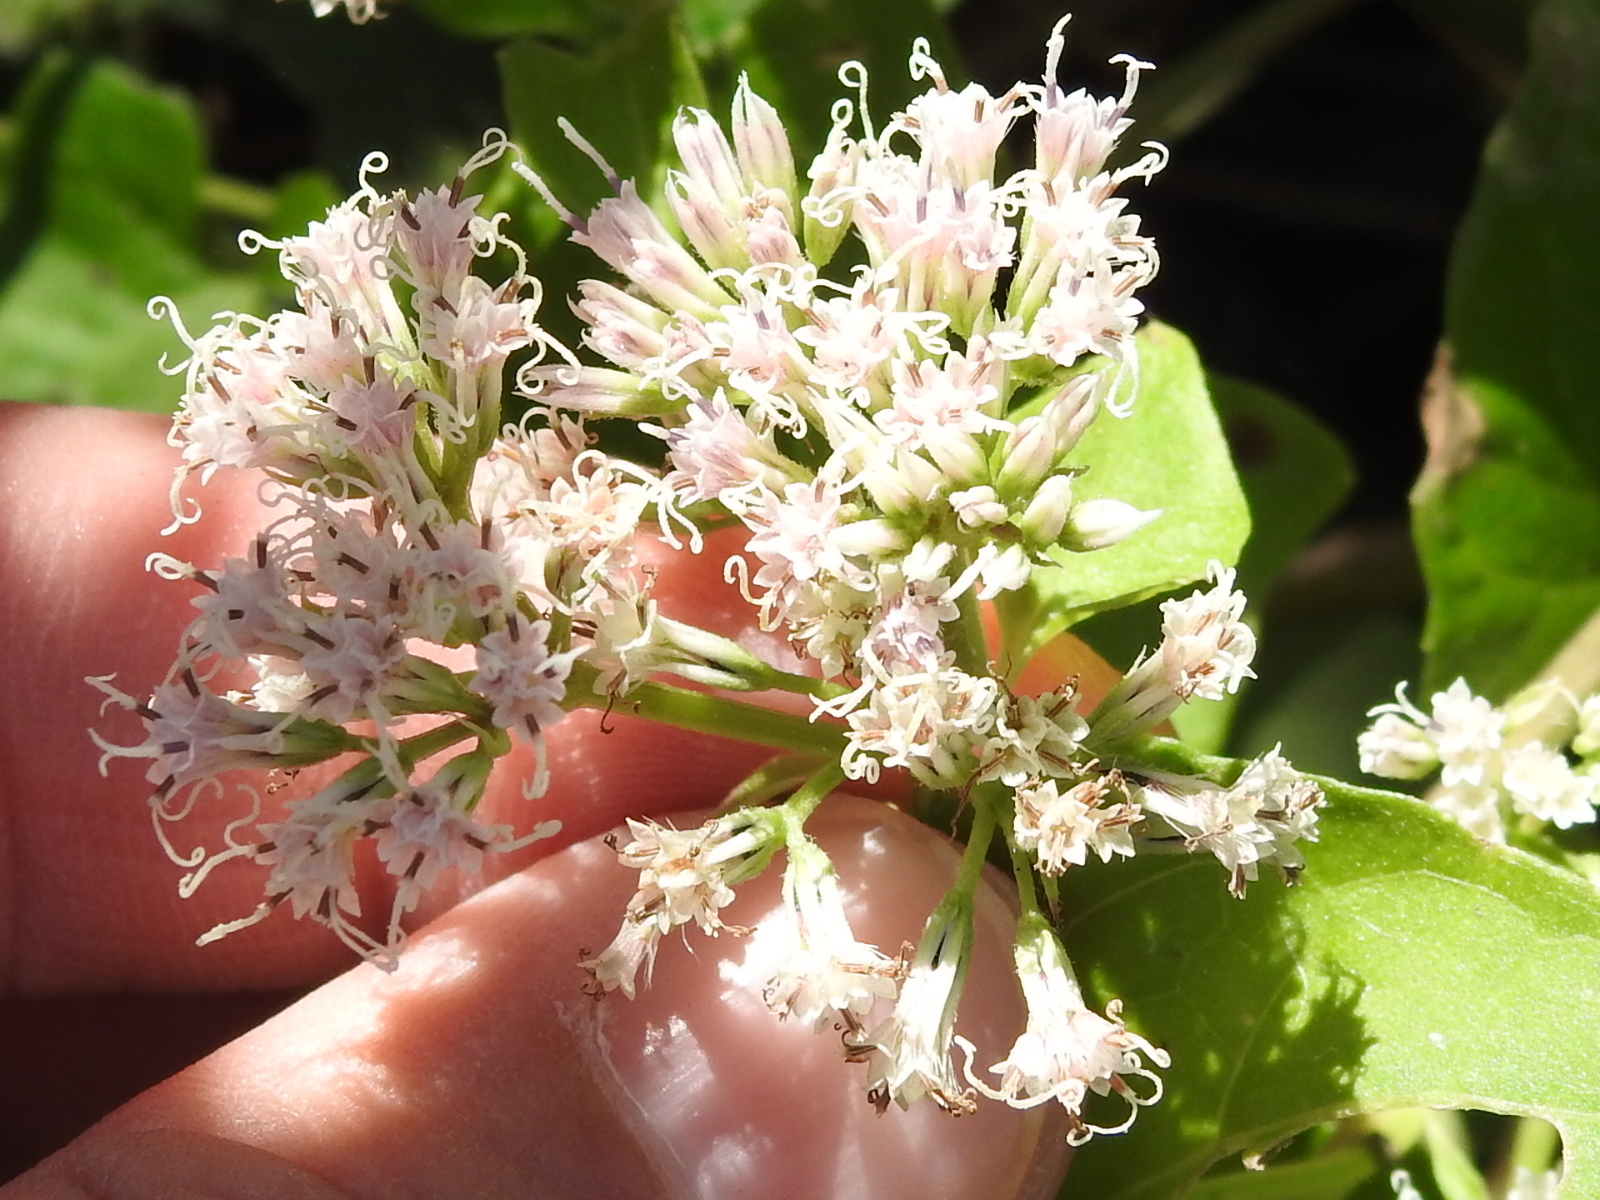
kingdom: Plantae
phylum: Tracheophyta
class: Magnoliopsida
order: Asterales
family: Asteraceae
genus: Mikania
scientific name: Mikania scandens
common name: Climbing hempvine
